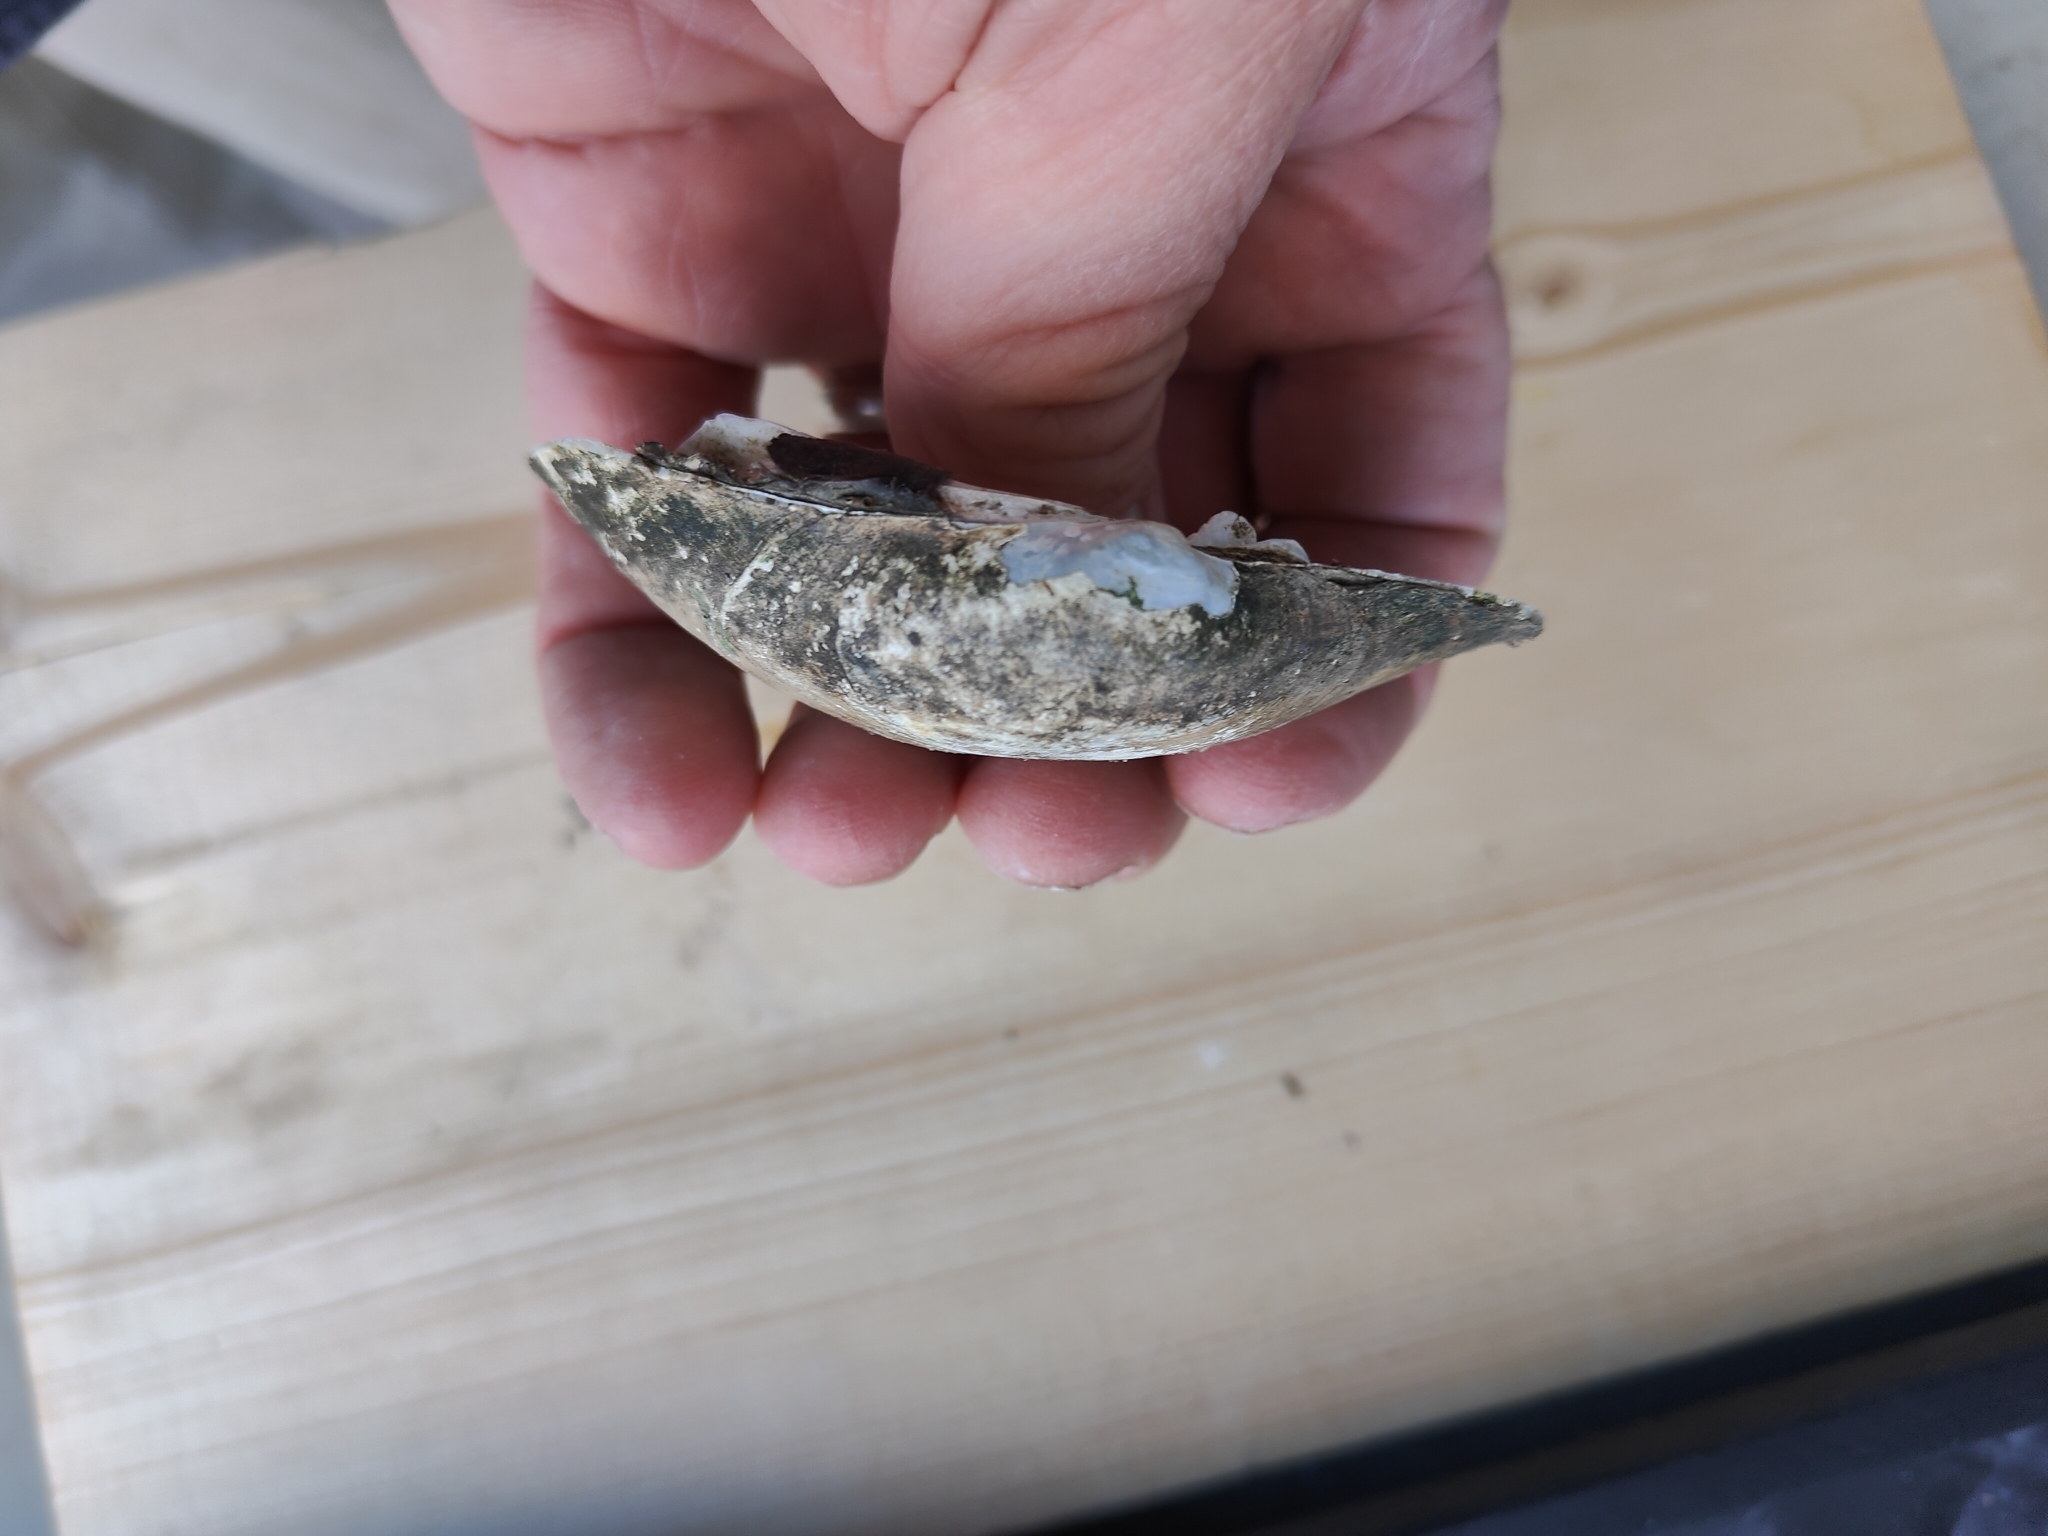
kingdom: Animalia
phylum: Mollusca
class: Bivalvia
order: Unionida
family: Unionidae
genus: Lampsilis
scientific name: Lampsilis cardium
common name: Plain pocketbook
